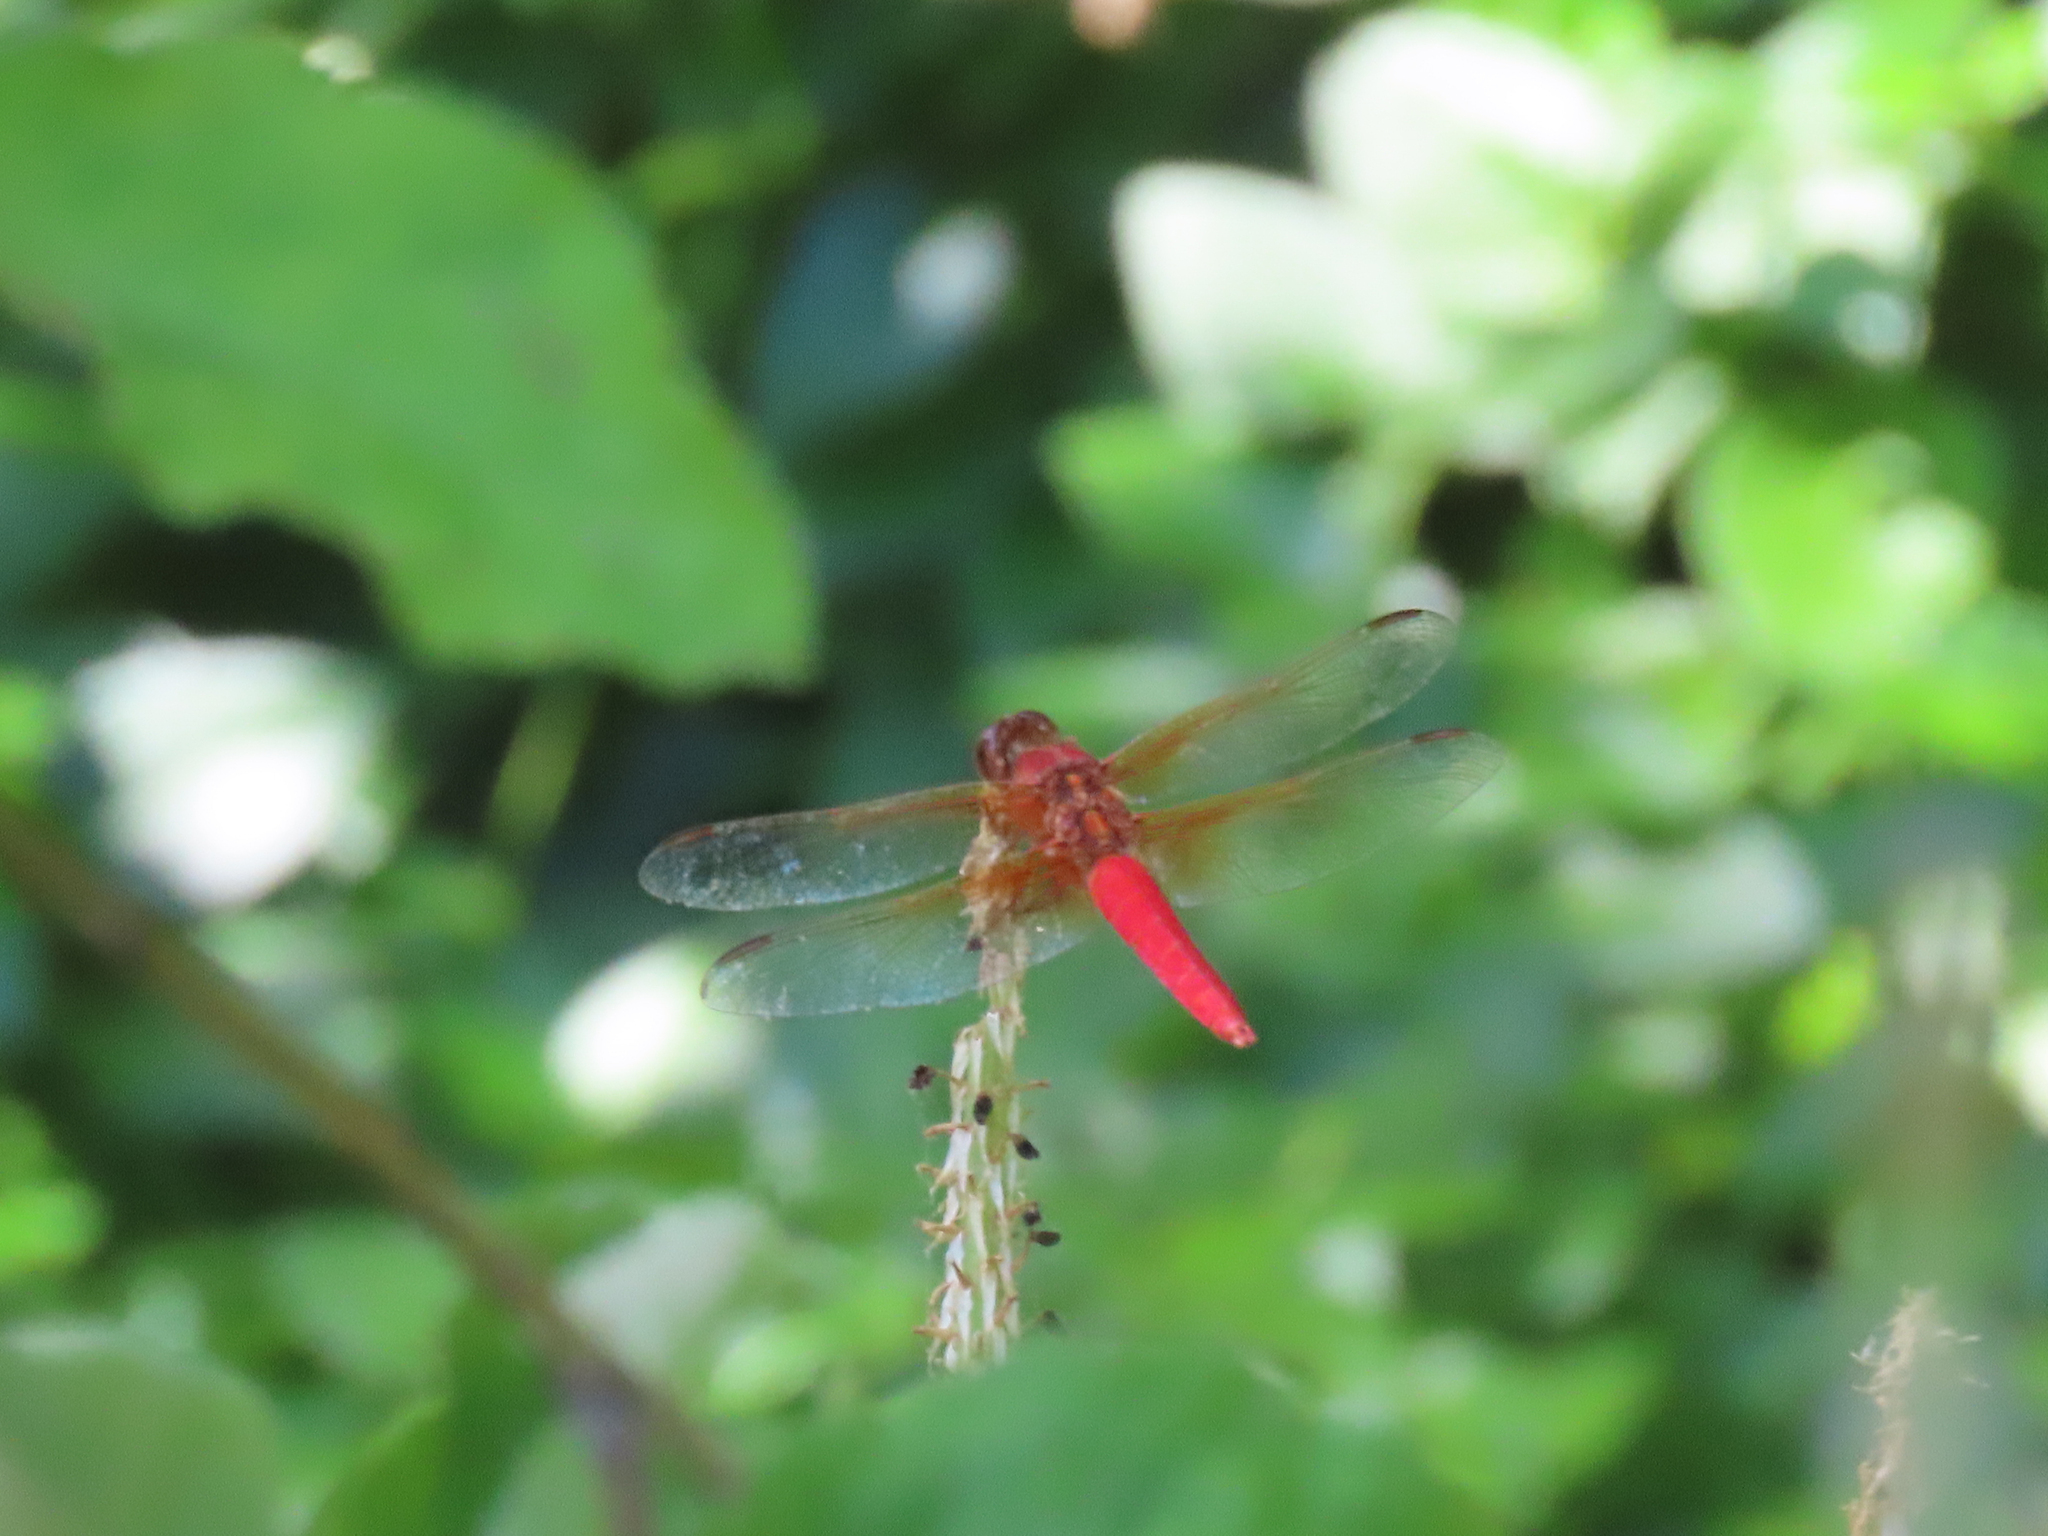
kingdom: Animalia
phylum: Arthropoda
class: Insecta
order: Odonata
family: Libellulidae
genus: Libellula
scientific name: Libellula croceipennis
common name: Neon skimmer
